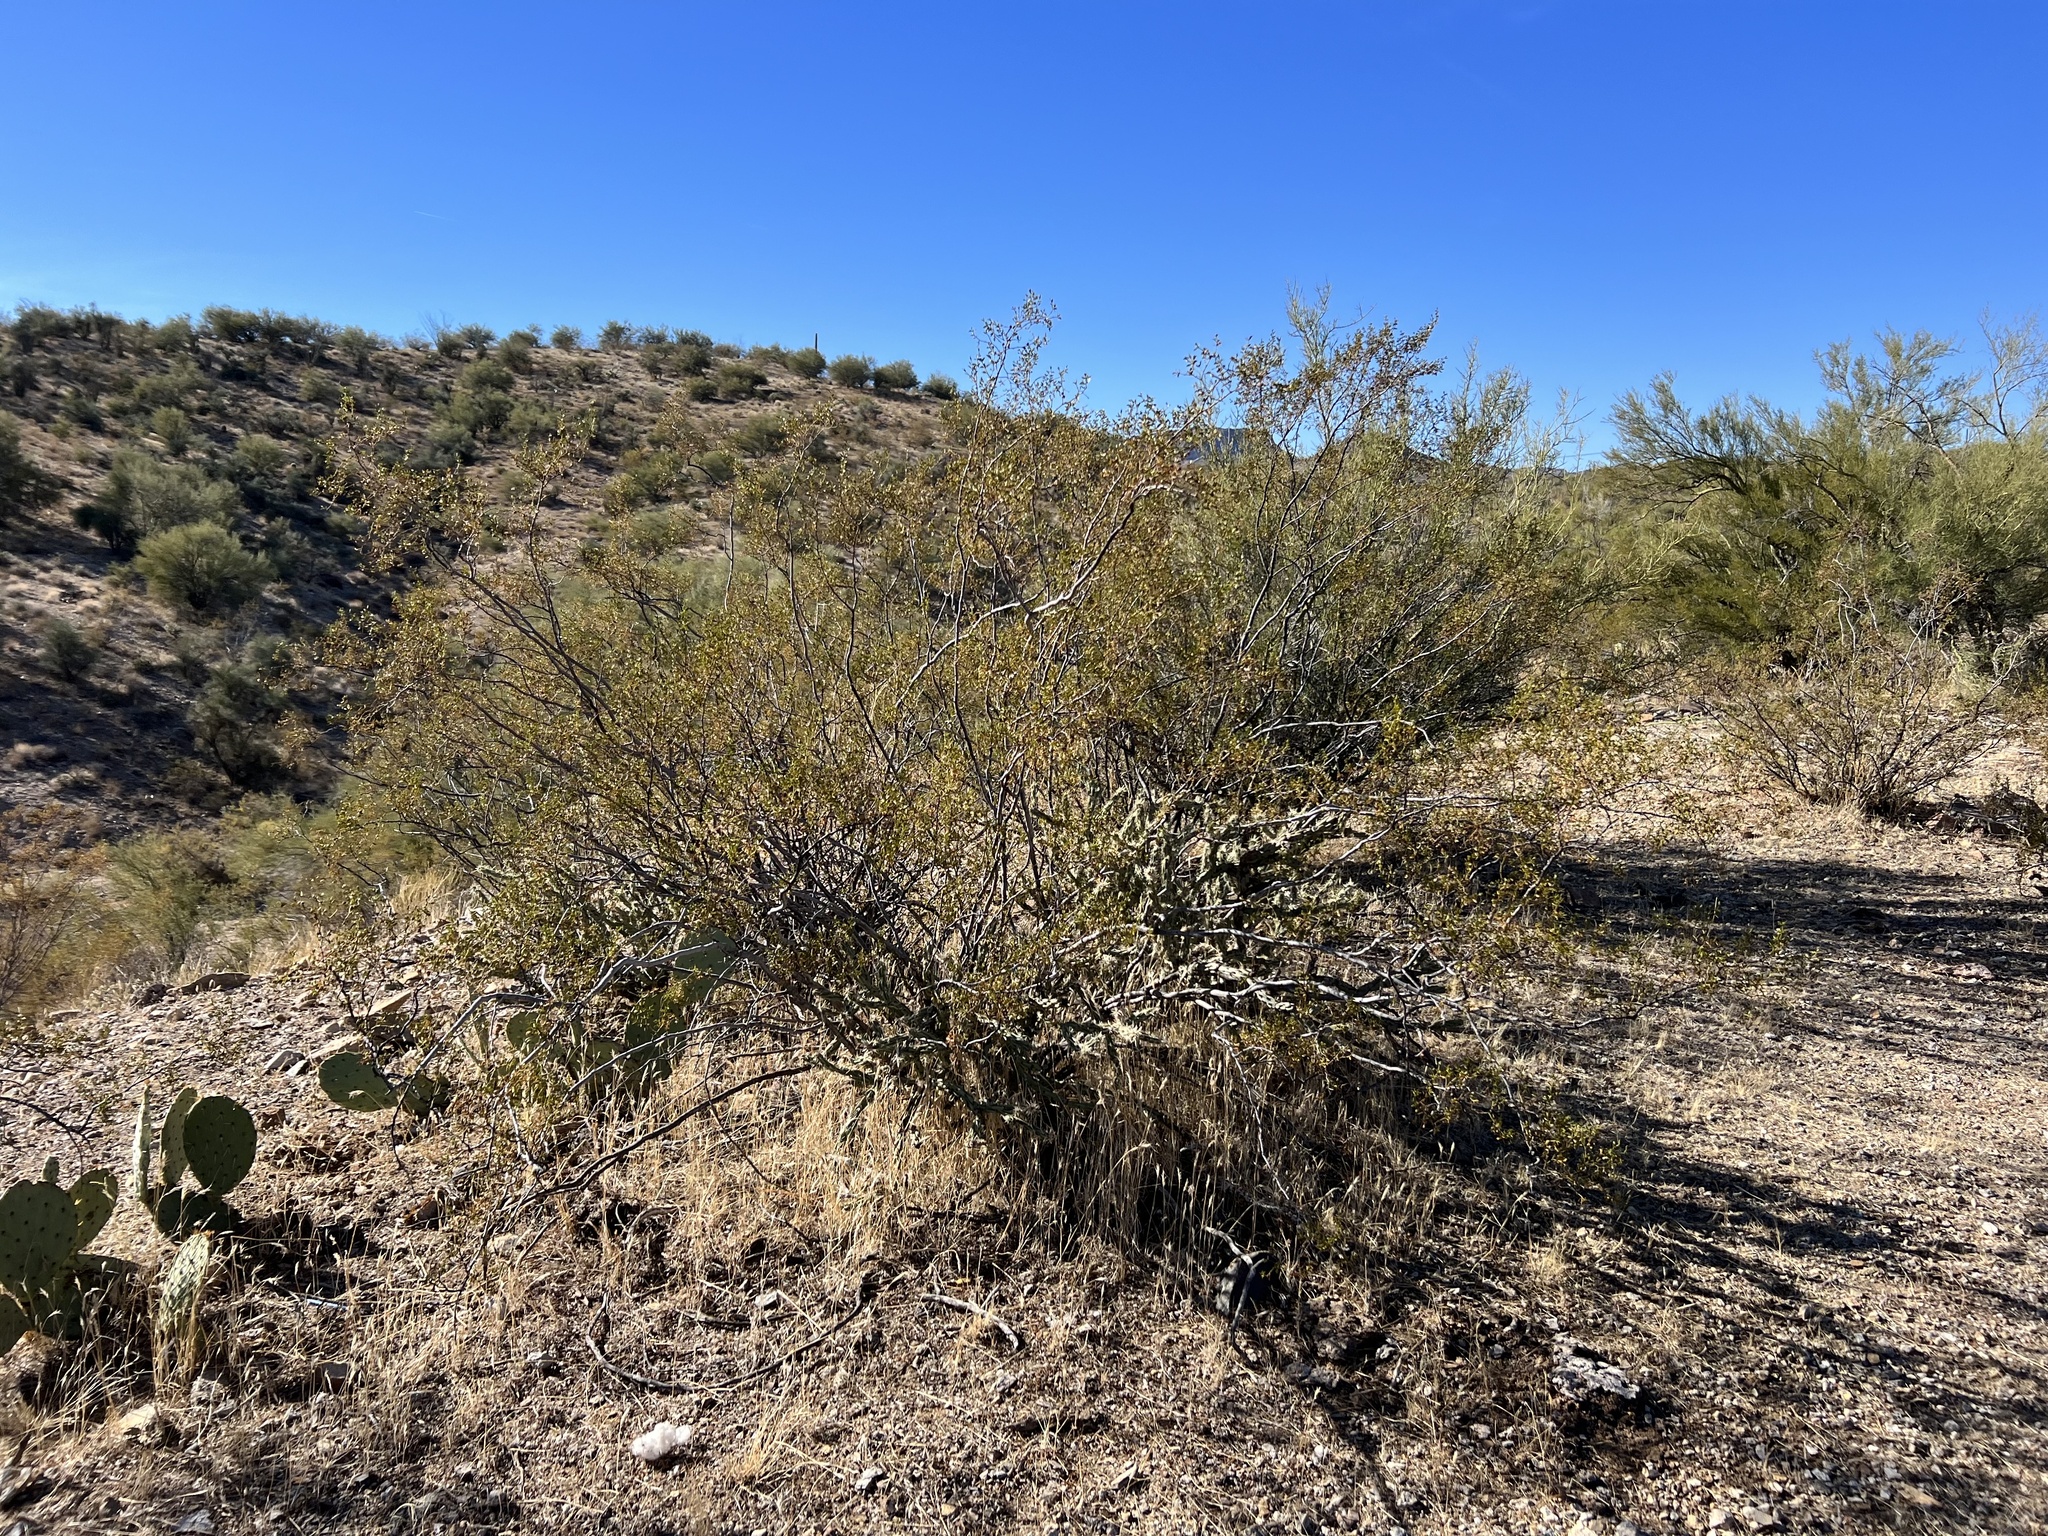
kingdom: Plantae
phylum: Tracheophyta
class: Magnoliopsida
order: Zygophyllales
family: Zygophyllaceae
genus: Larrea
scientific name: Larrea tridentata
